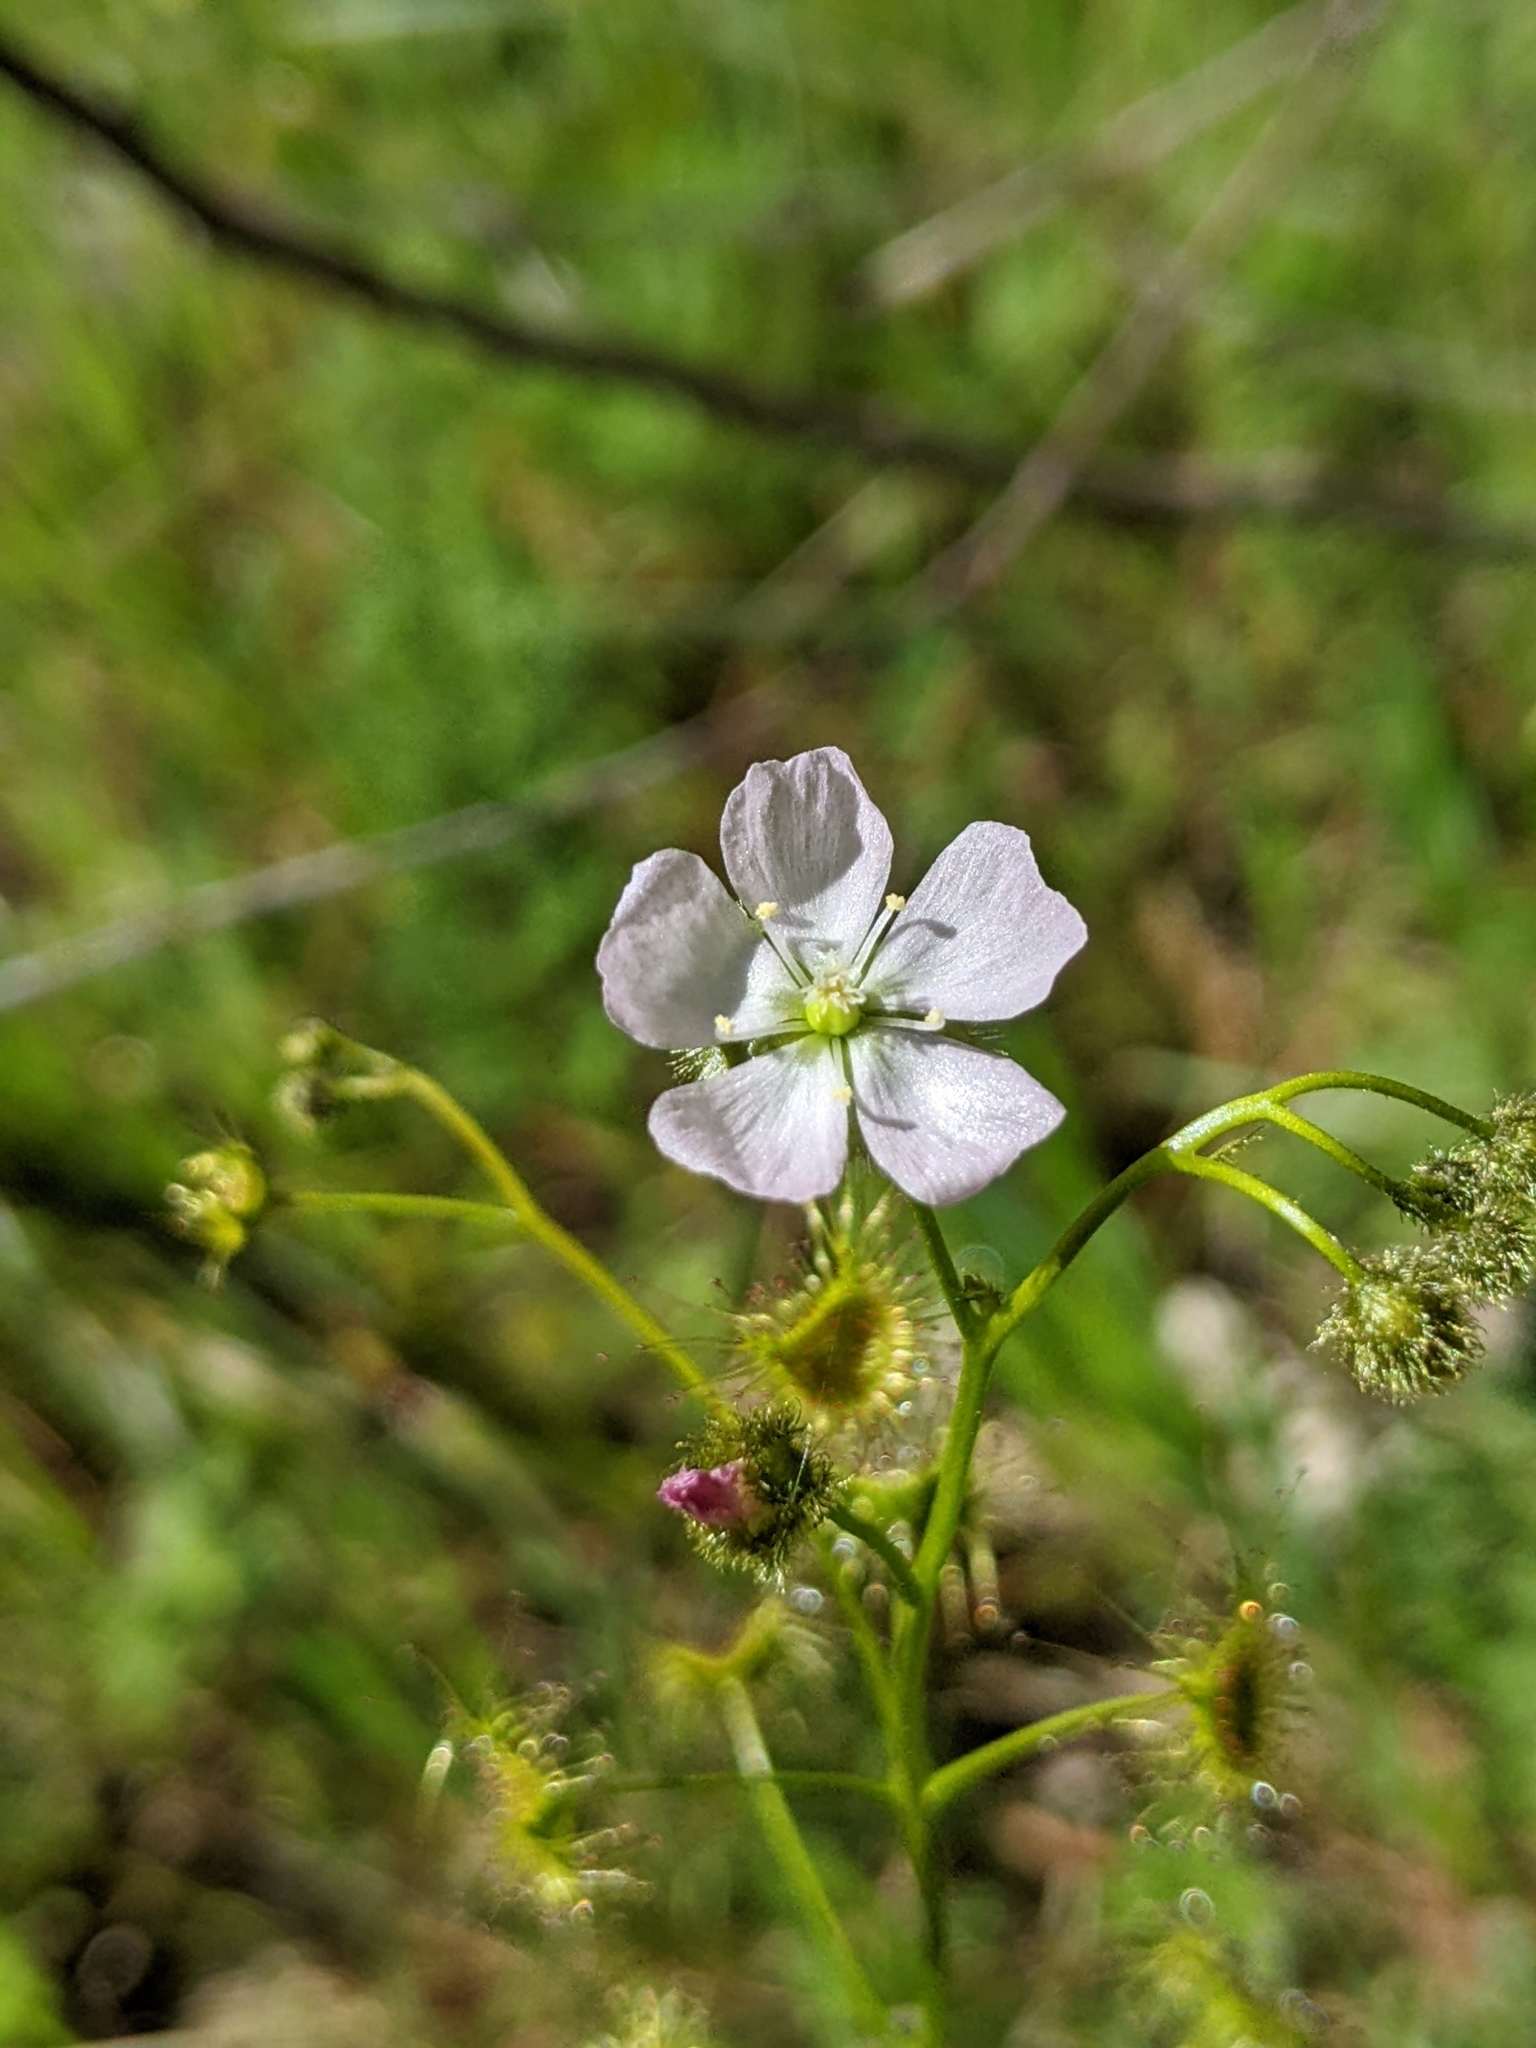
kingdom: Plantae
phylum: Tracheophyta
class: Magnoliopsida
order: Caryophyllales
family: Droseraceae
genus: Drosera
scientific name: Drosera gunniana
